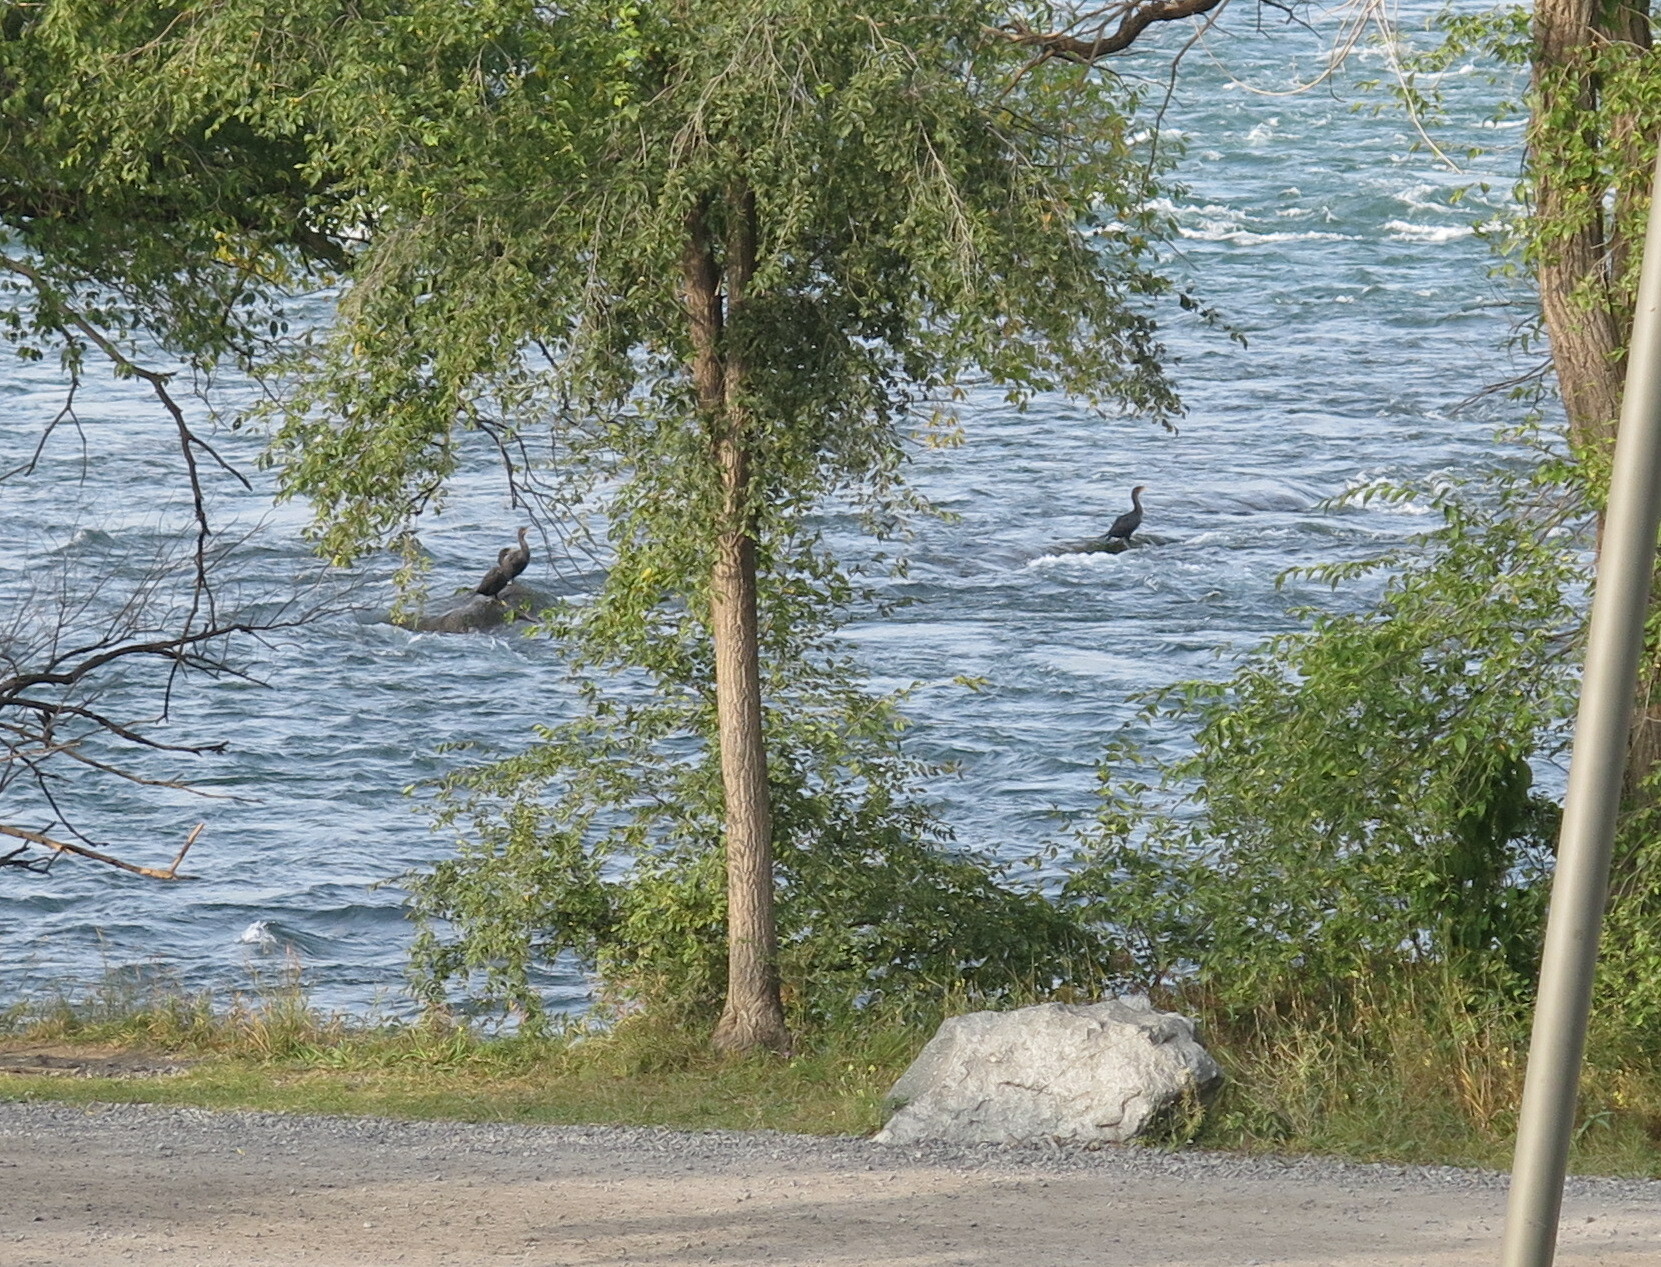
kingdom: Animalia
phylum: Chordata
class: Aves
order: Suliformes
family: Phalacrocoracidae
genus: Phalacrocorax
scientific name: Phalacrocorax auritus
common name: Double-crested cormorant
